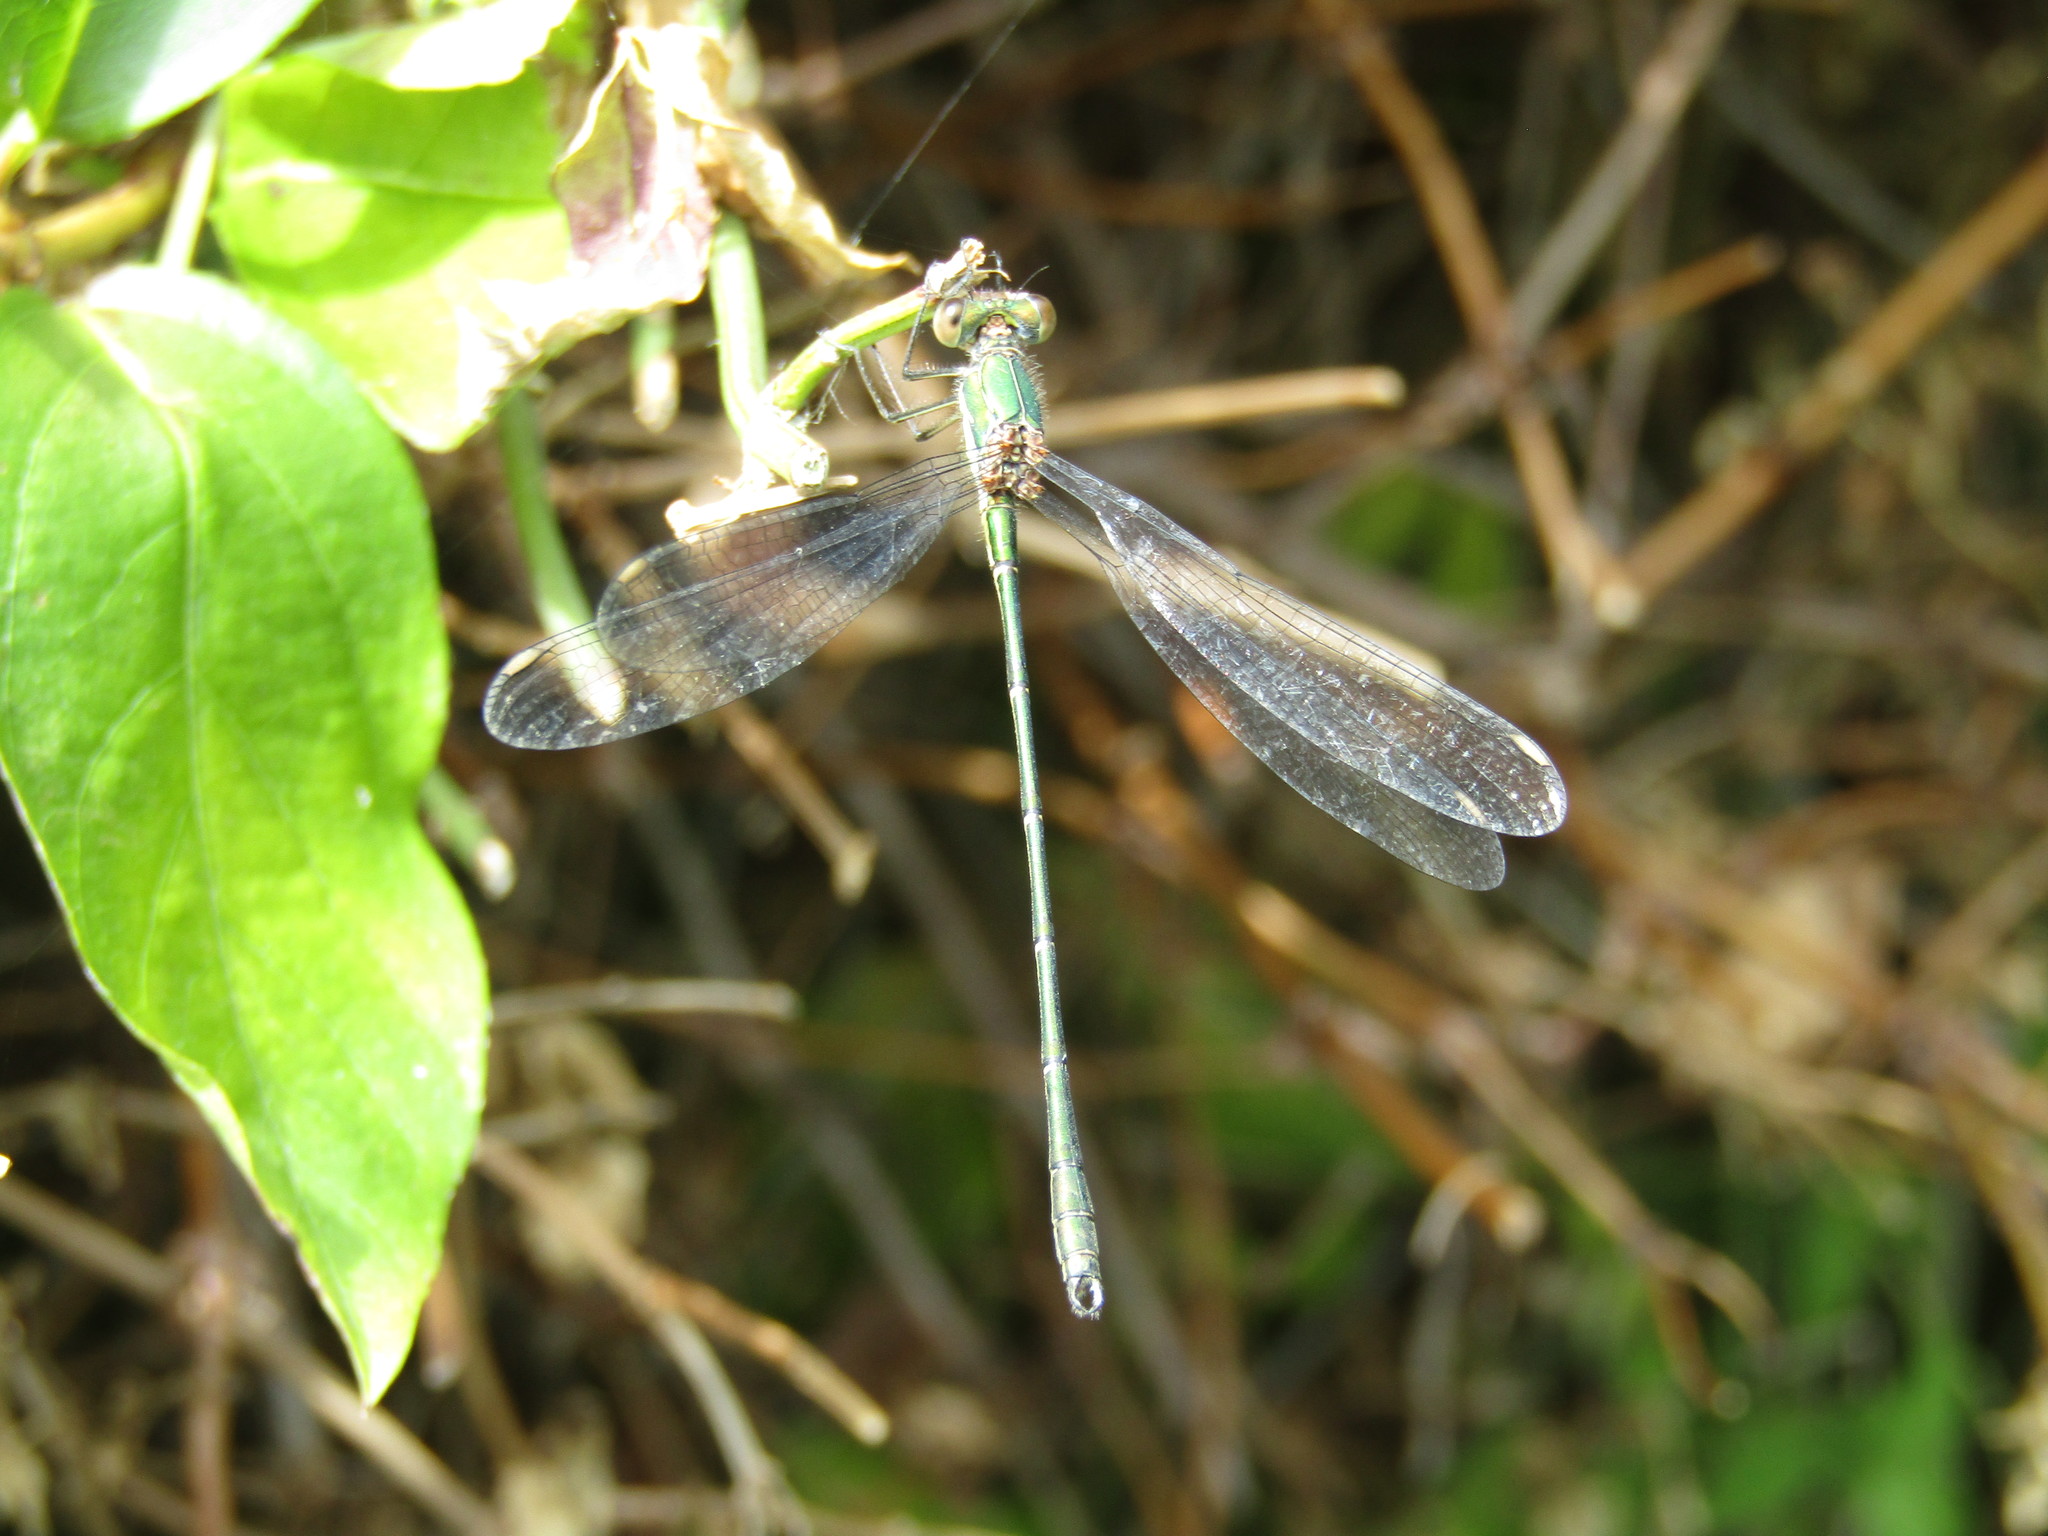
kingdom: Animalia
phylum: Arthropoda
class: Insecta
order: Odonata
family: Lestidae
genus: Chalcolestes
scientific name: Chalcolestes viridis
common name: Green emerald damselfly
